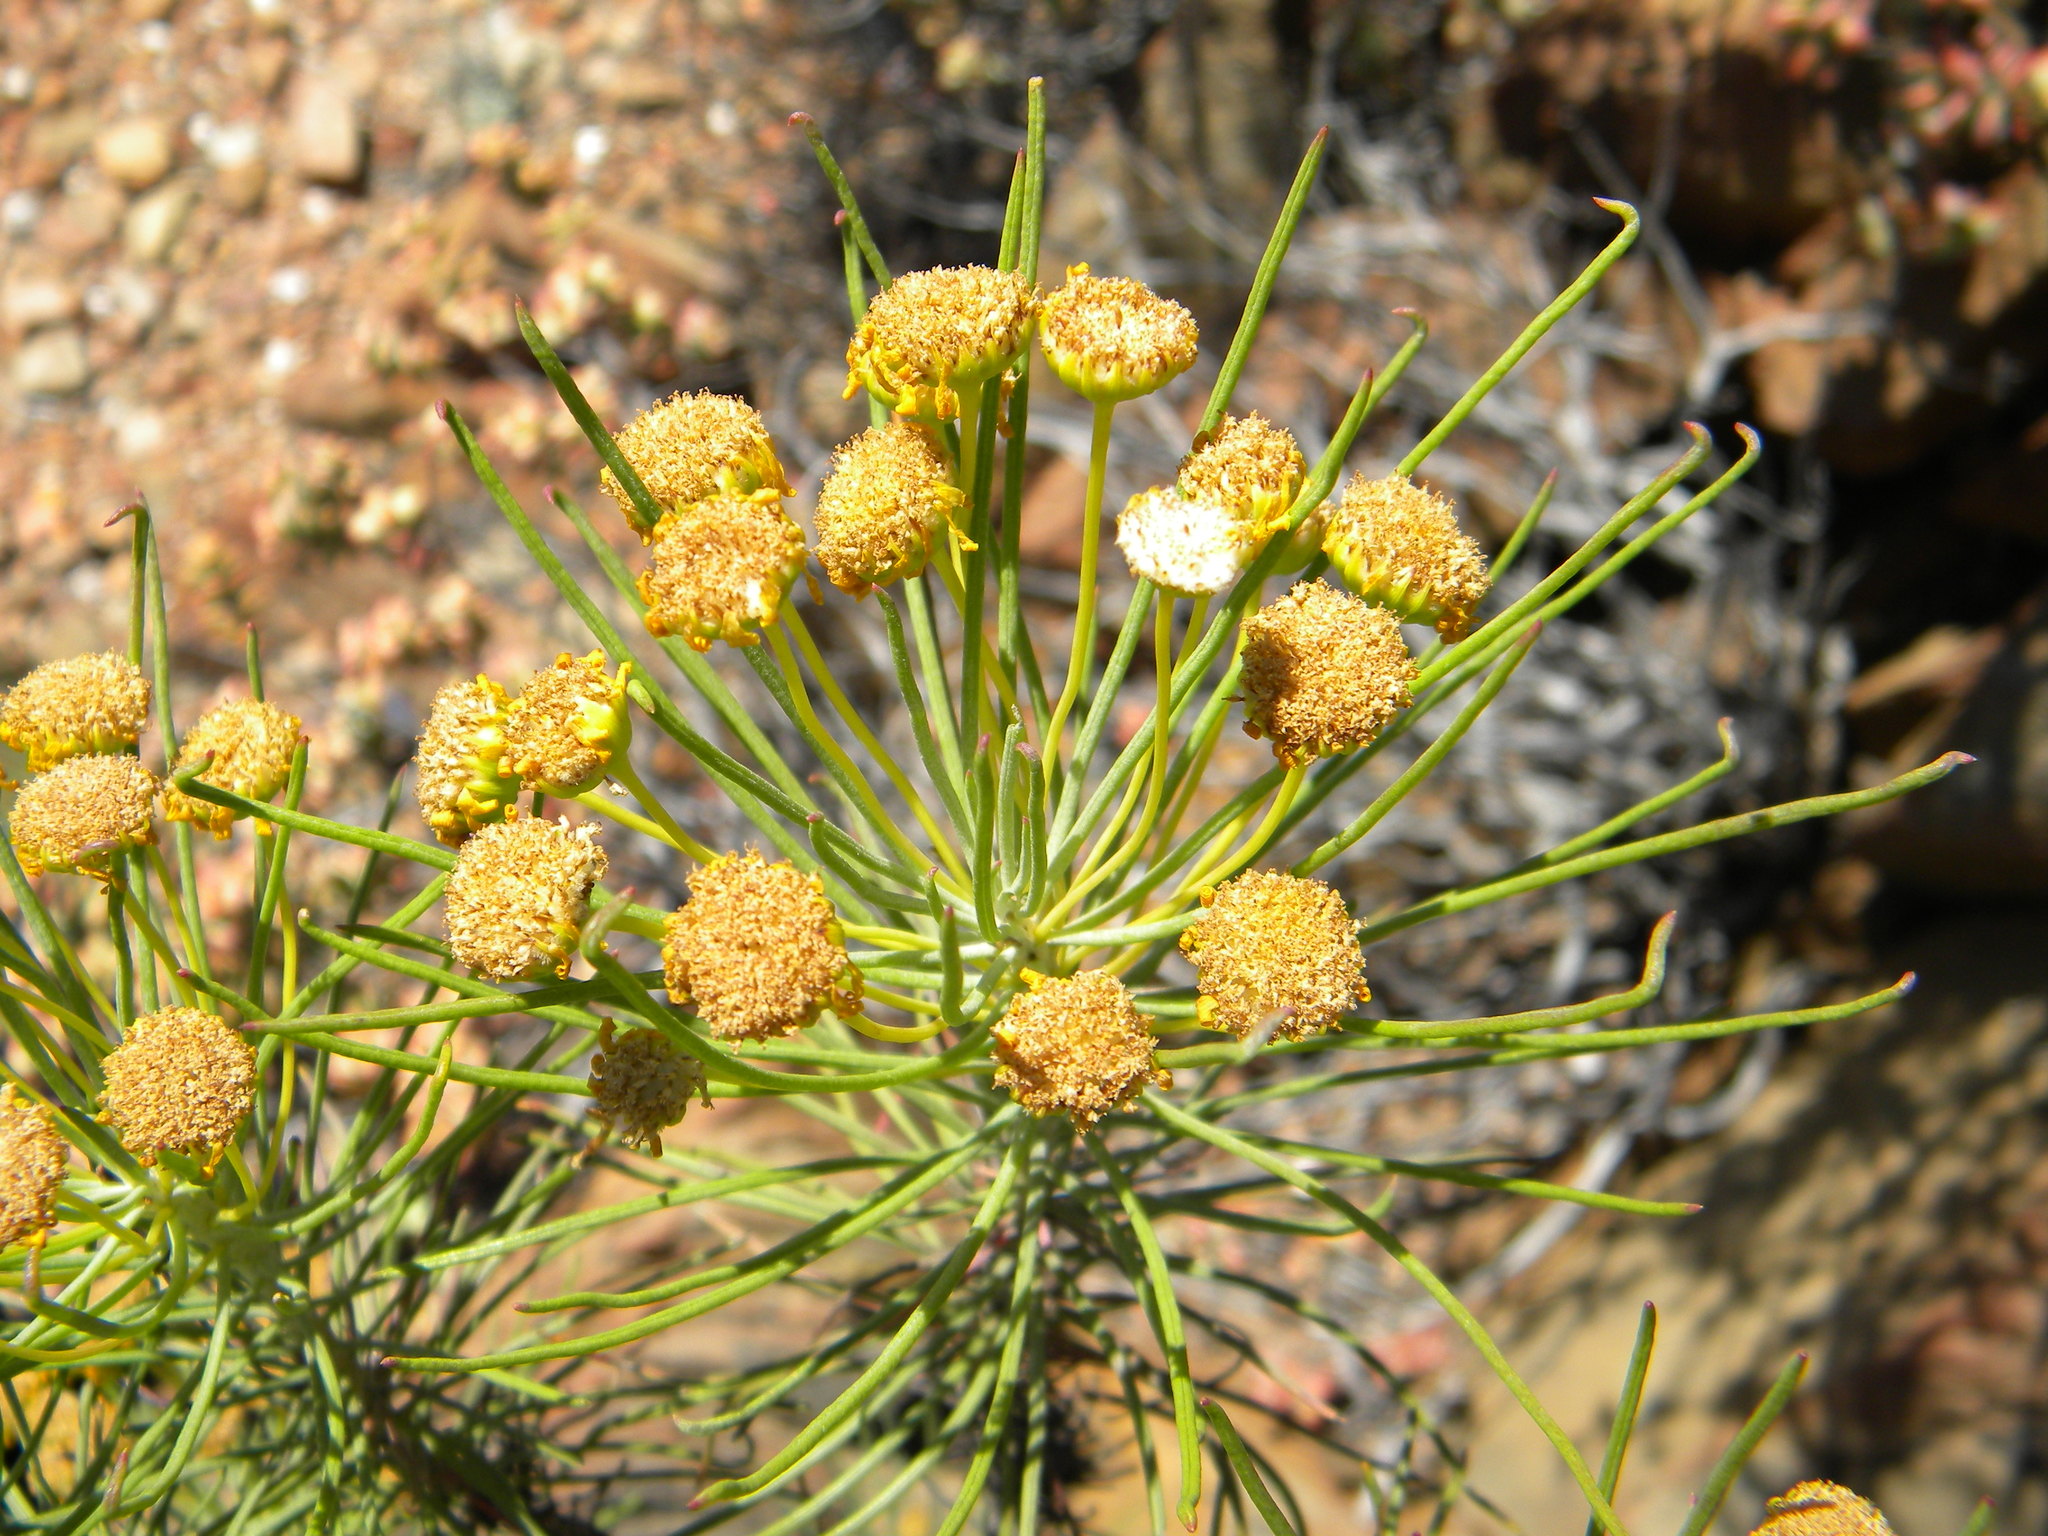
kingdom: Plantae
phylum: Tracheophyta
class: Magnoliopsida
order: Asterales
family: Asteraceae
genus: Euryops
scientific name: Euryops tenuissimus
